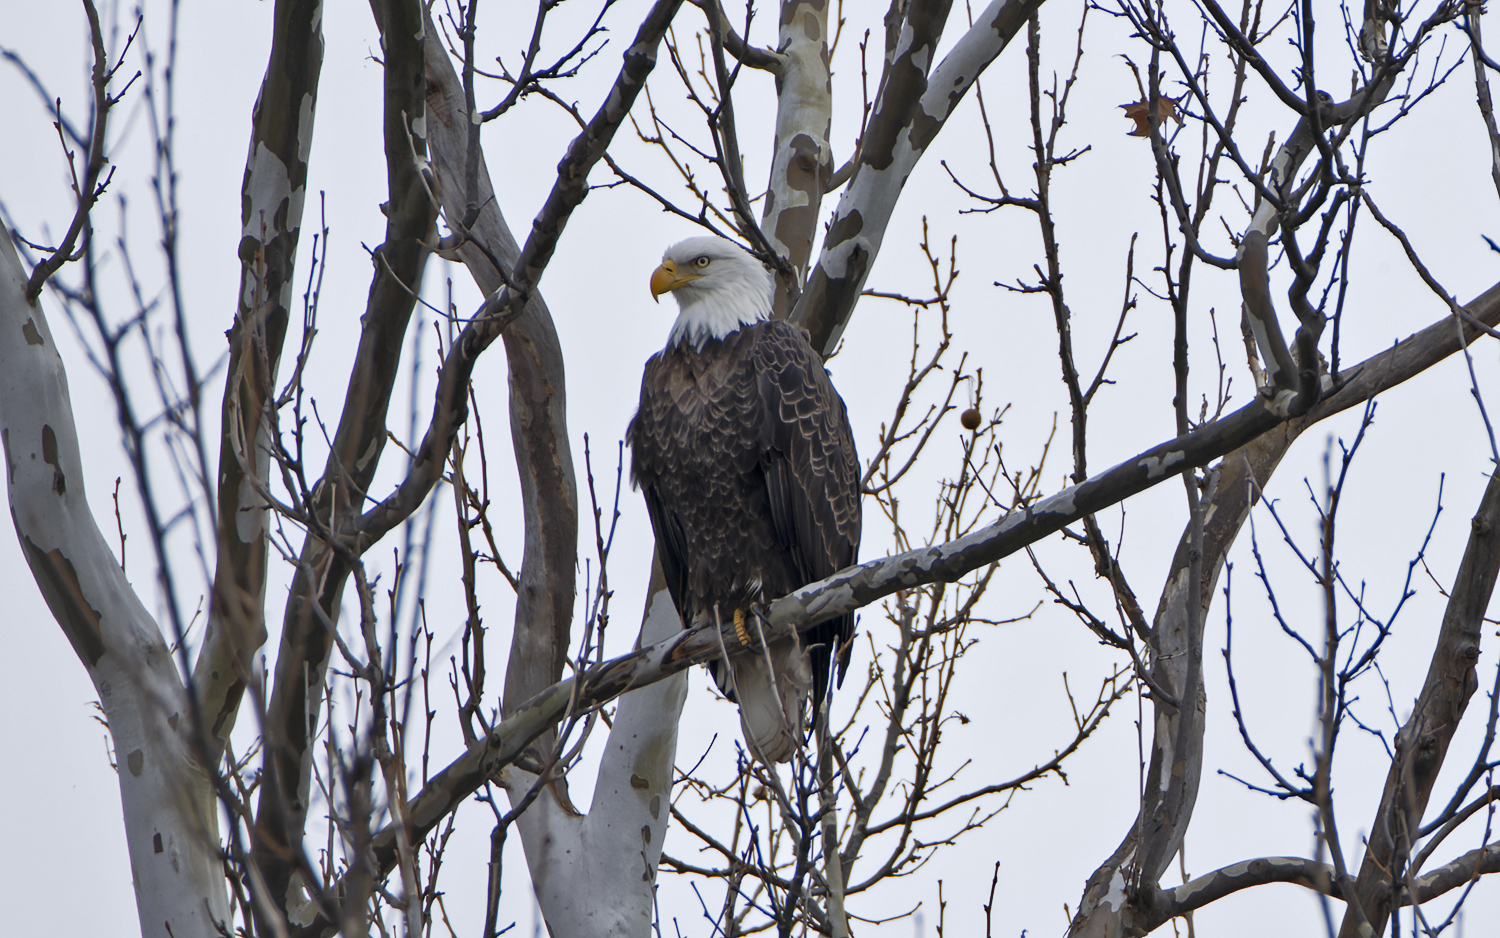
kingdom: Animalia
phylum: Chordata
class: Aves
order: Accipitriformes
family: Accipitridae
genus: Haliaeetus
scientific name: Haliaeetus leucocephalus
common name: Bald eagle
